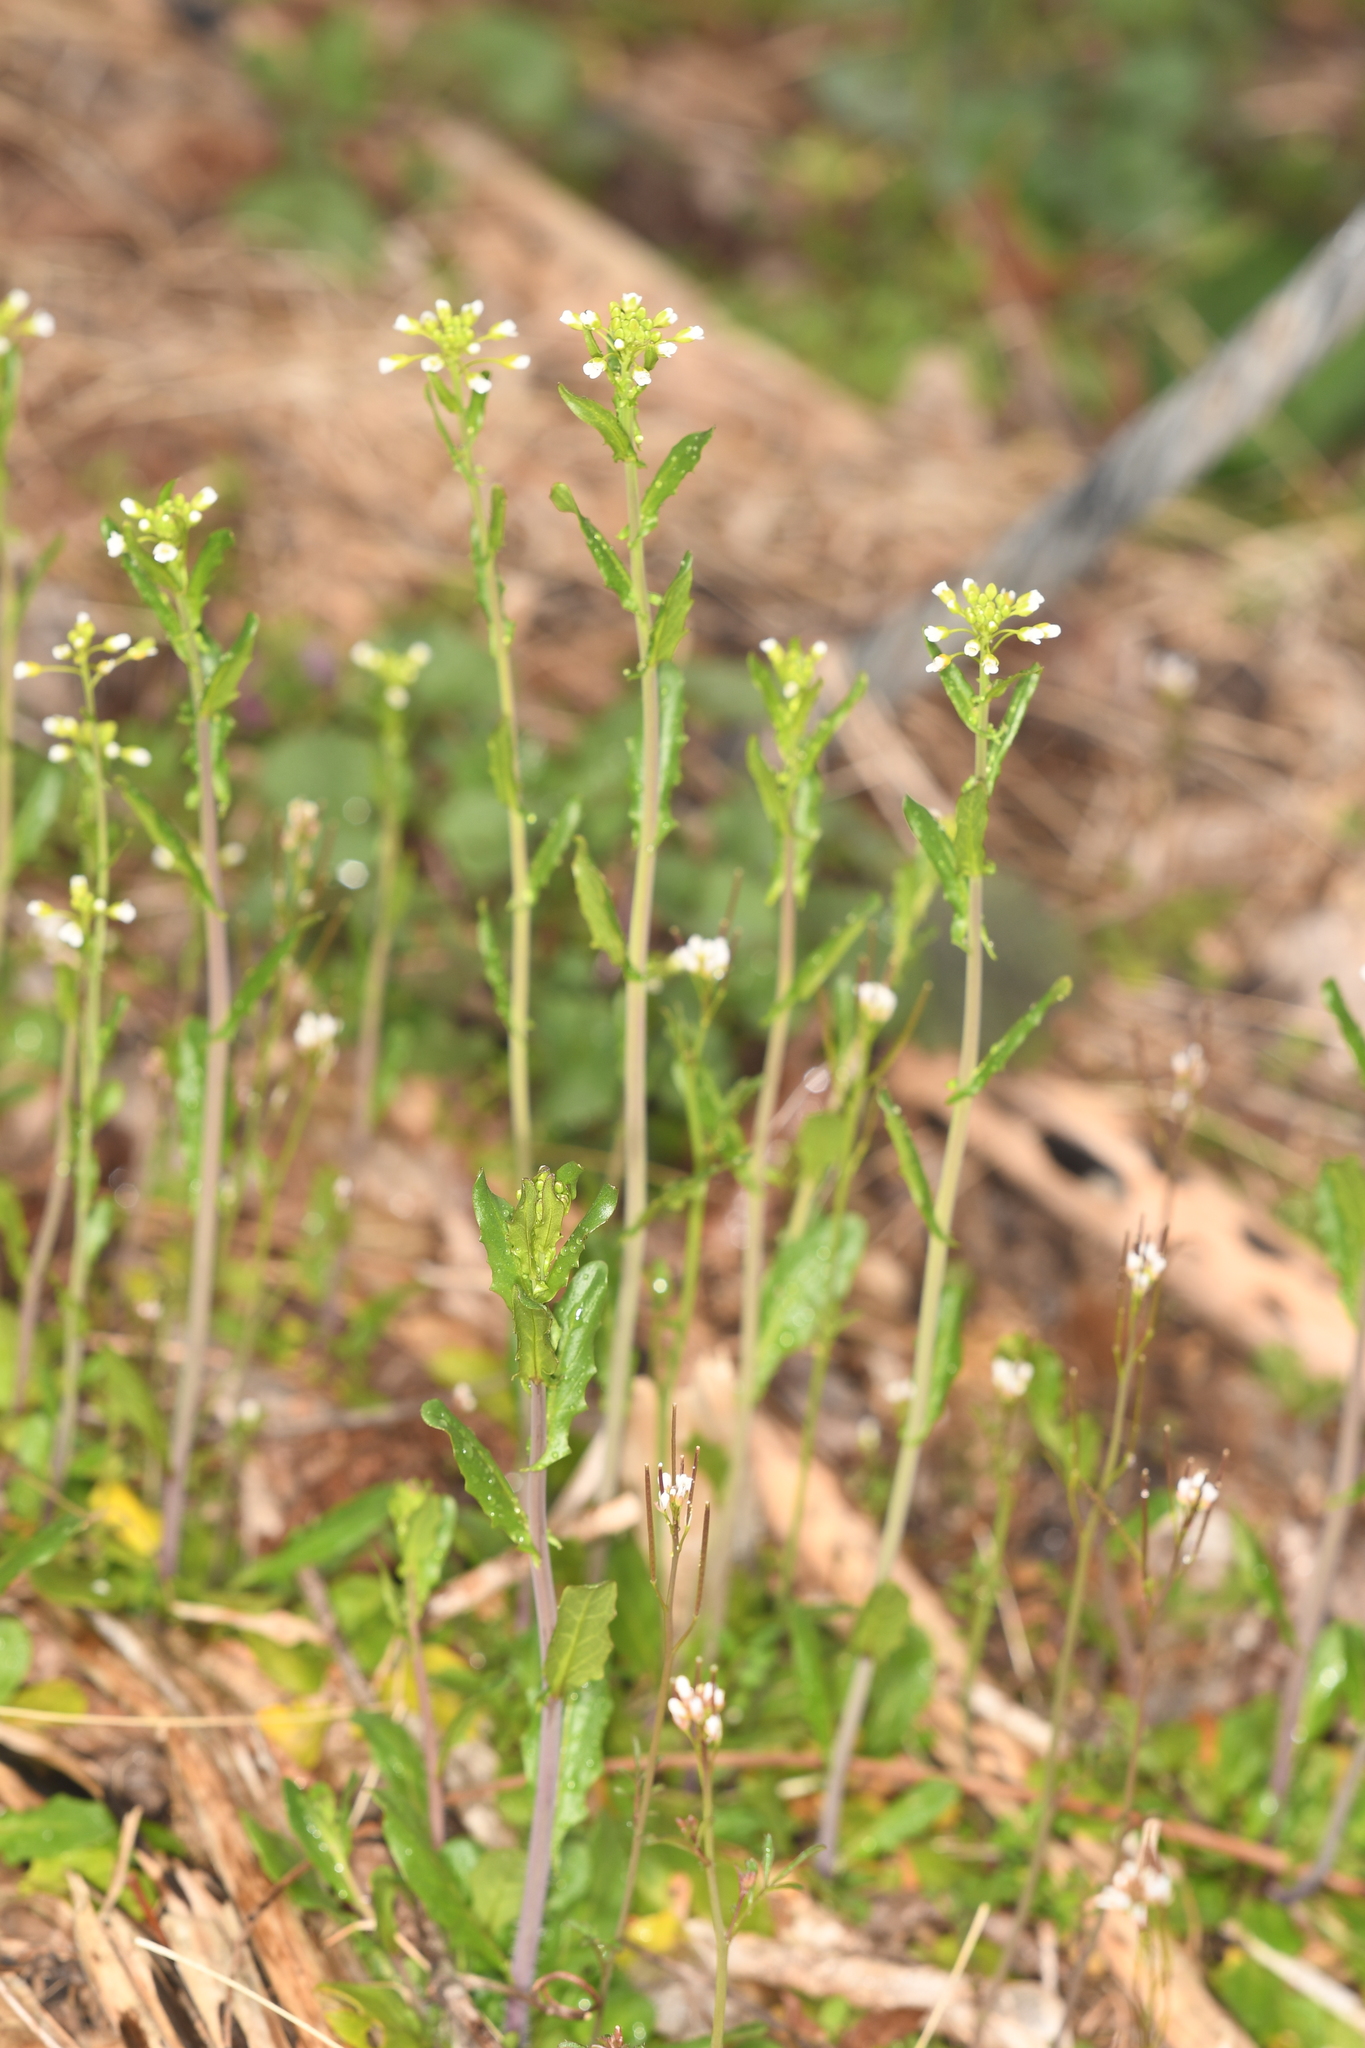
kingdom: Plantae
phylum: Tracheophyta
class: Magnoliopsida
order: Brassicales
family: Brassicaceae
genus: Mummenhoffia
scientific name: Mummenhoffia alliacea
